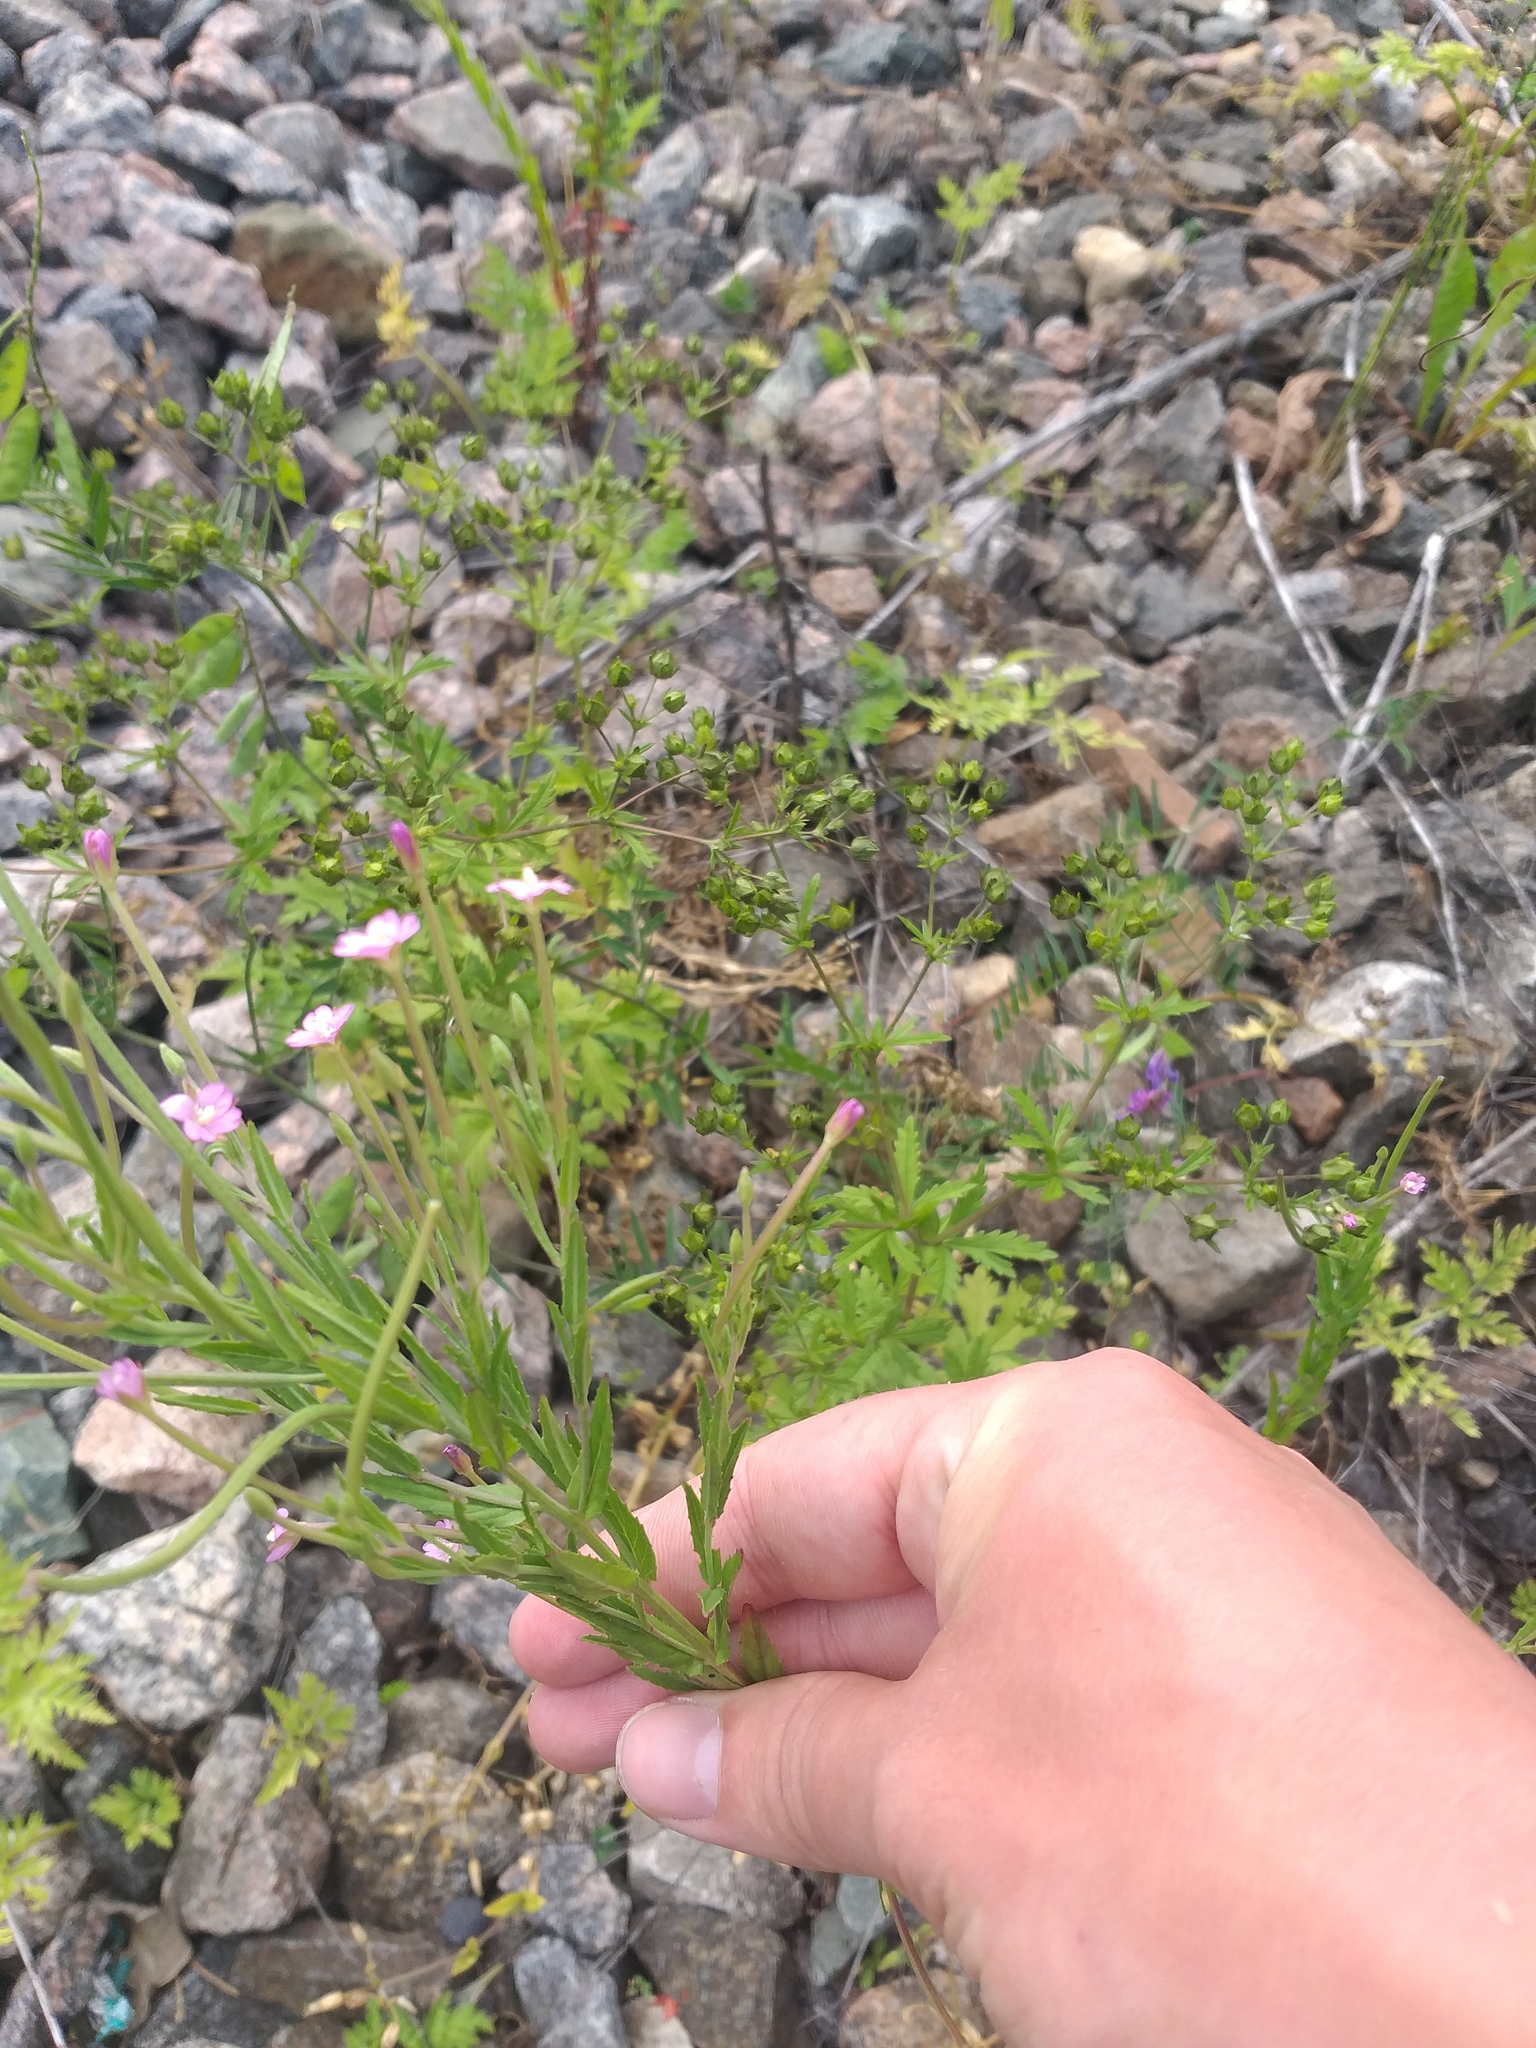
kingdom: Plantae
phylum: Tracheophyta
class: Magnoliopsida
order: Myrtales
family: Onagraceae
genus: Epilobium
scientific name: Epilobium tetragonum
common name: Square-stemmed willowherb
